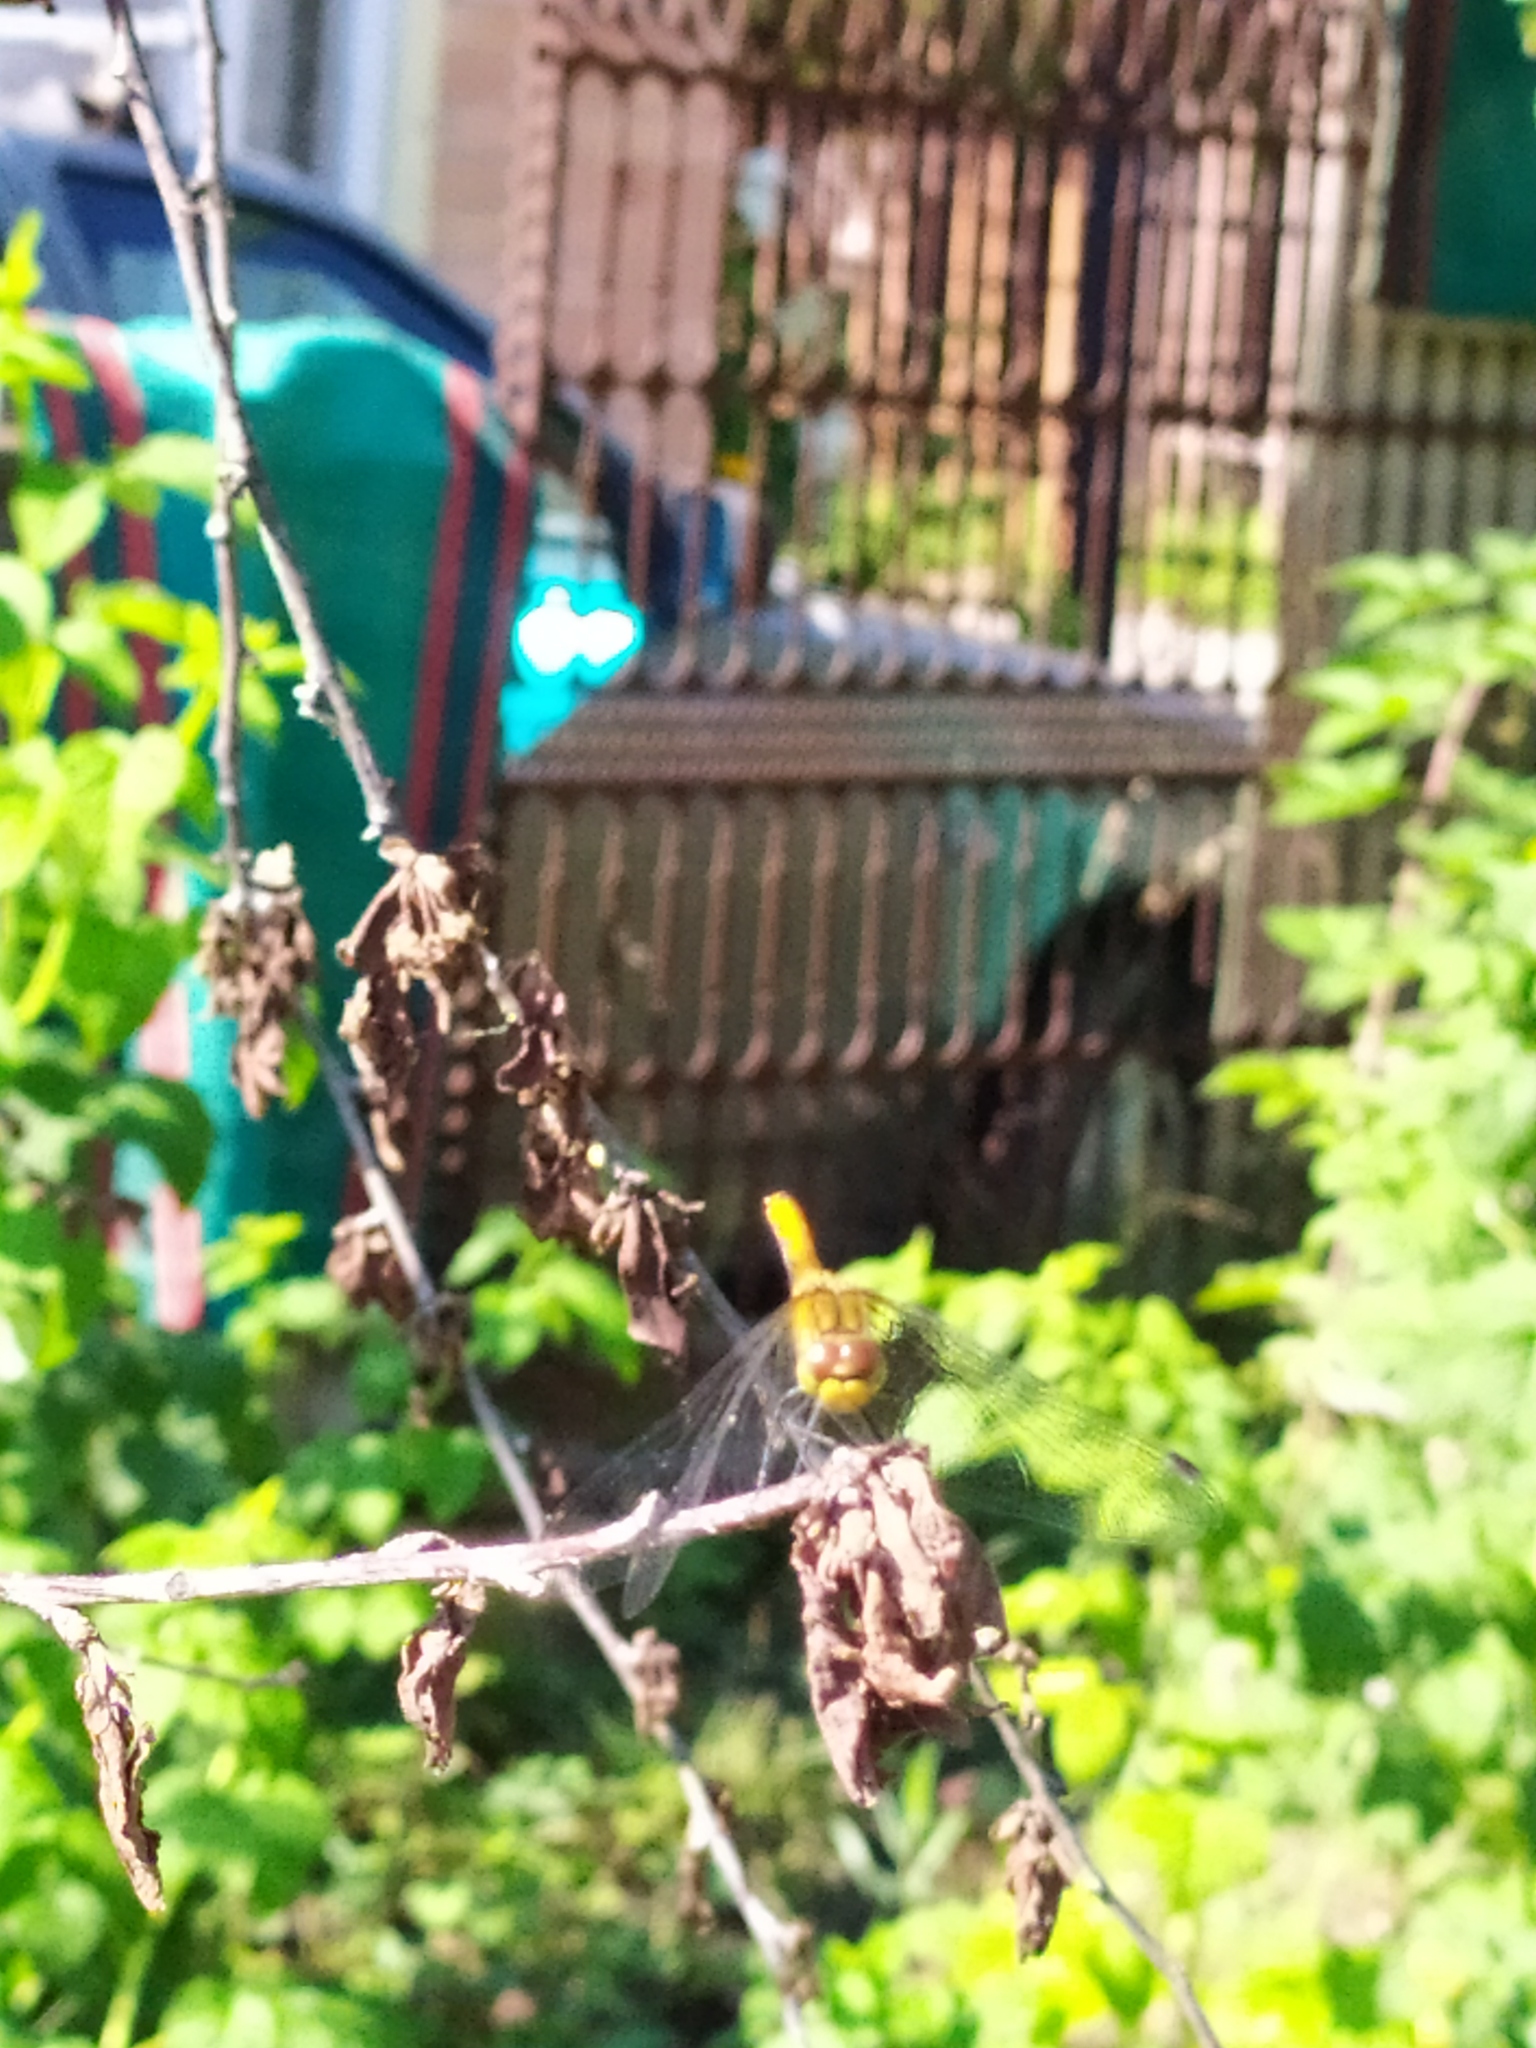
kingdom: Animalia
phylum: Arthropoda
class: Insecta
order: Odonata
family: Libellulidae
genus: Sympetrum
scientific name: Sympetrum sanguineum
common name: Ruddy darter
